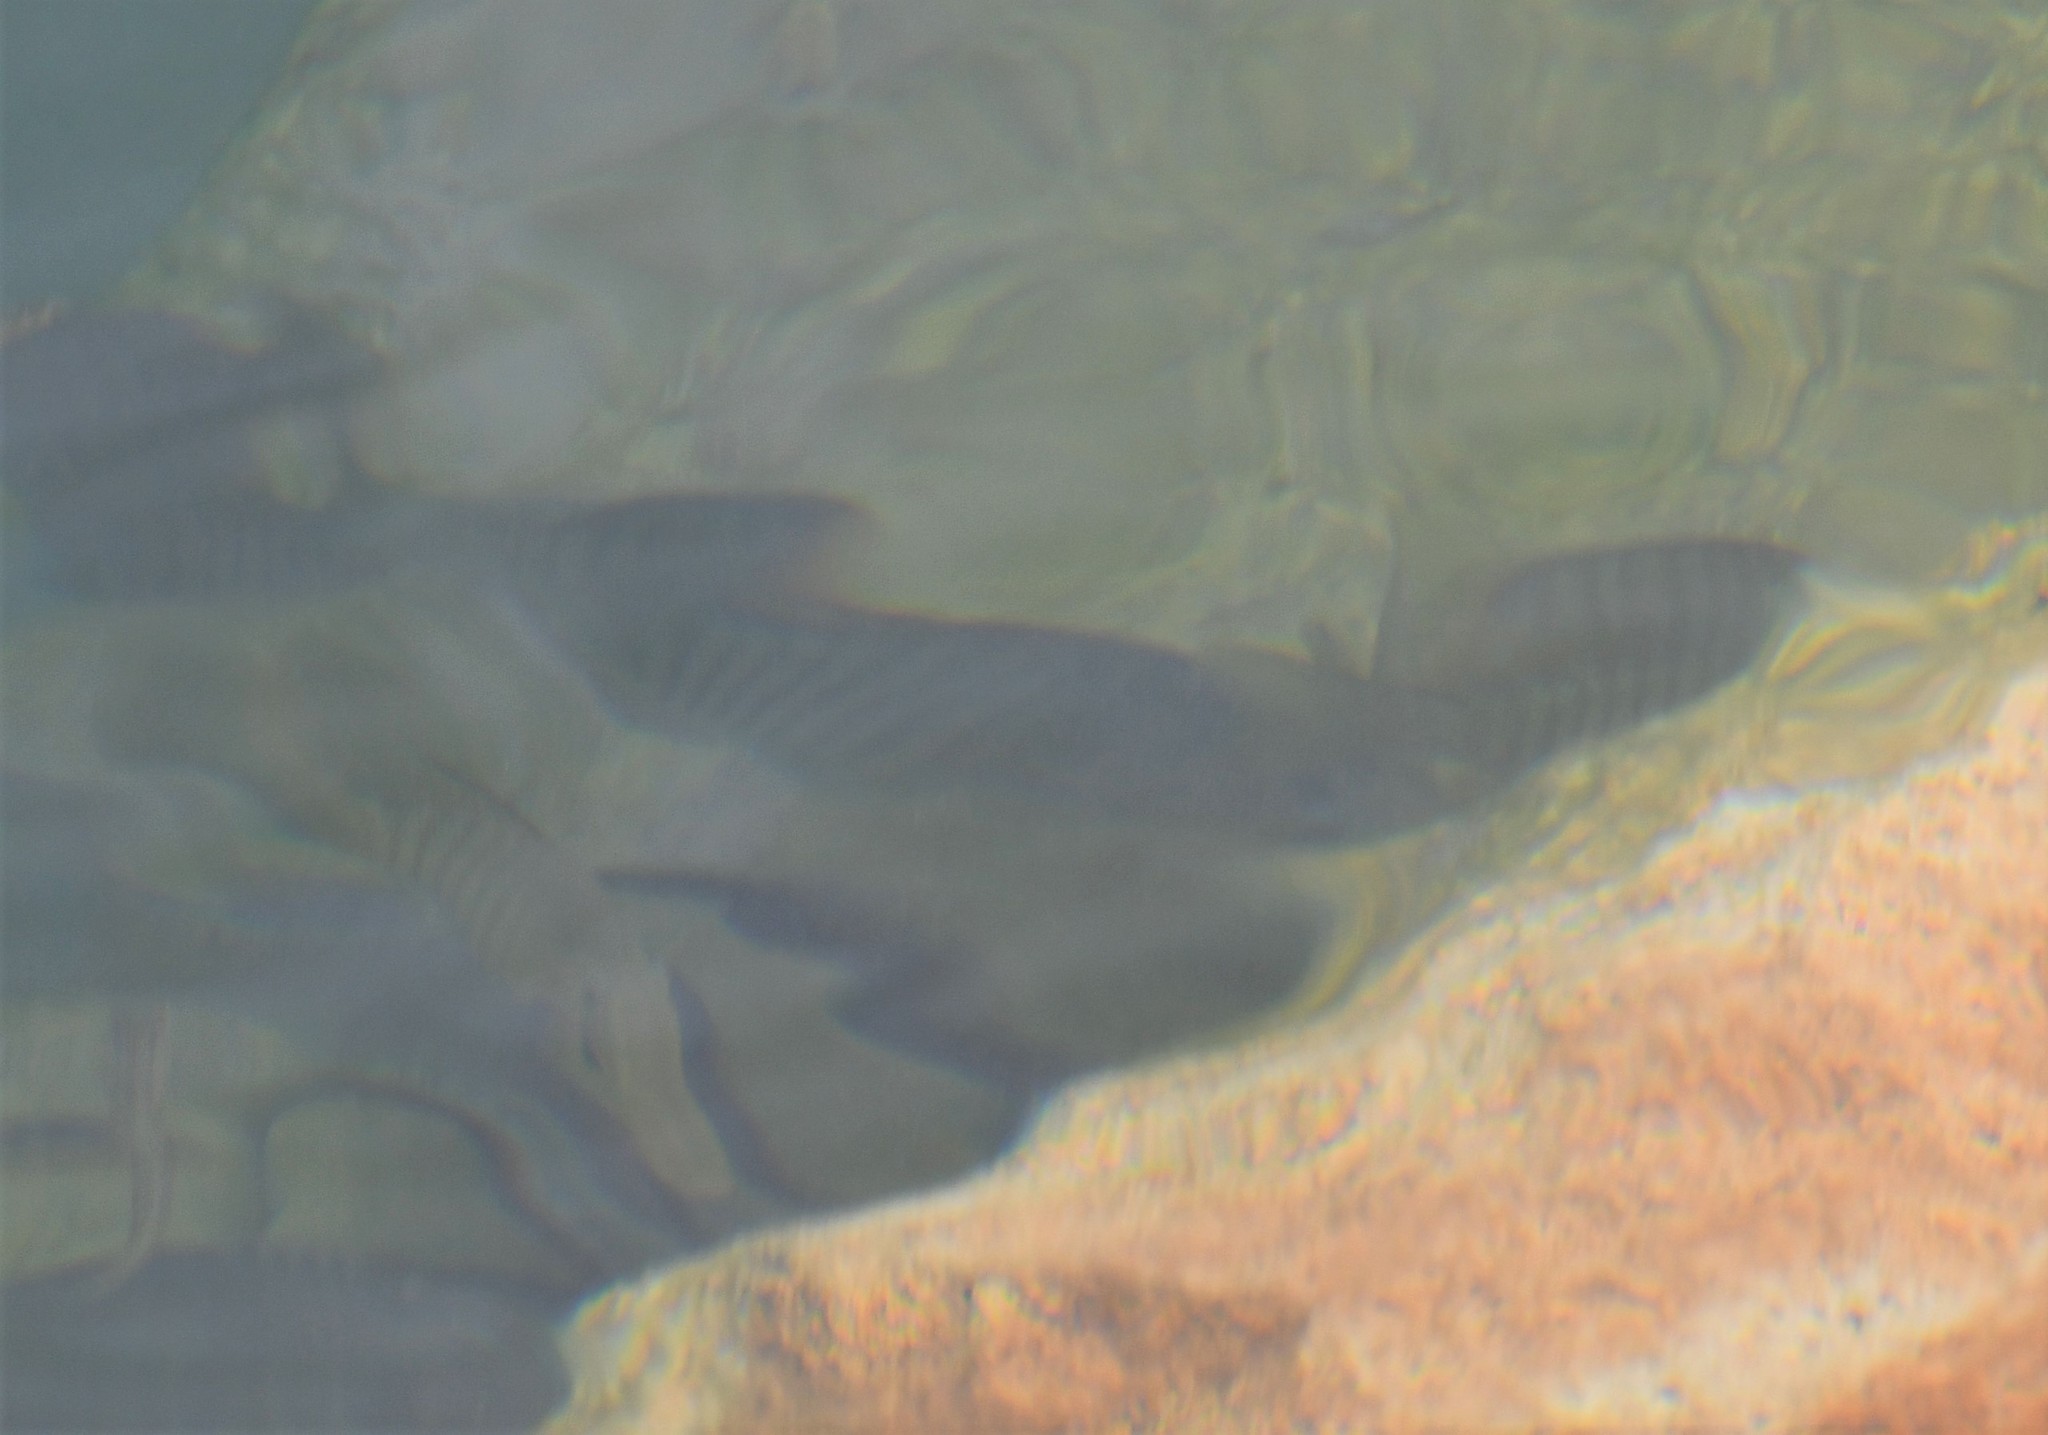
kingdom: Animalia
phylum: Chordata
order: Perciformes
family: Kyphosidae
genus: Girella
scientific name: Girella tricuspidata
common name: Parore
